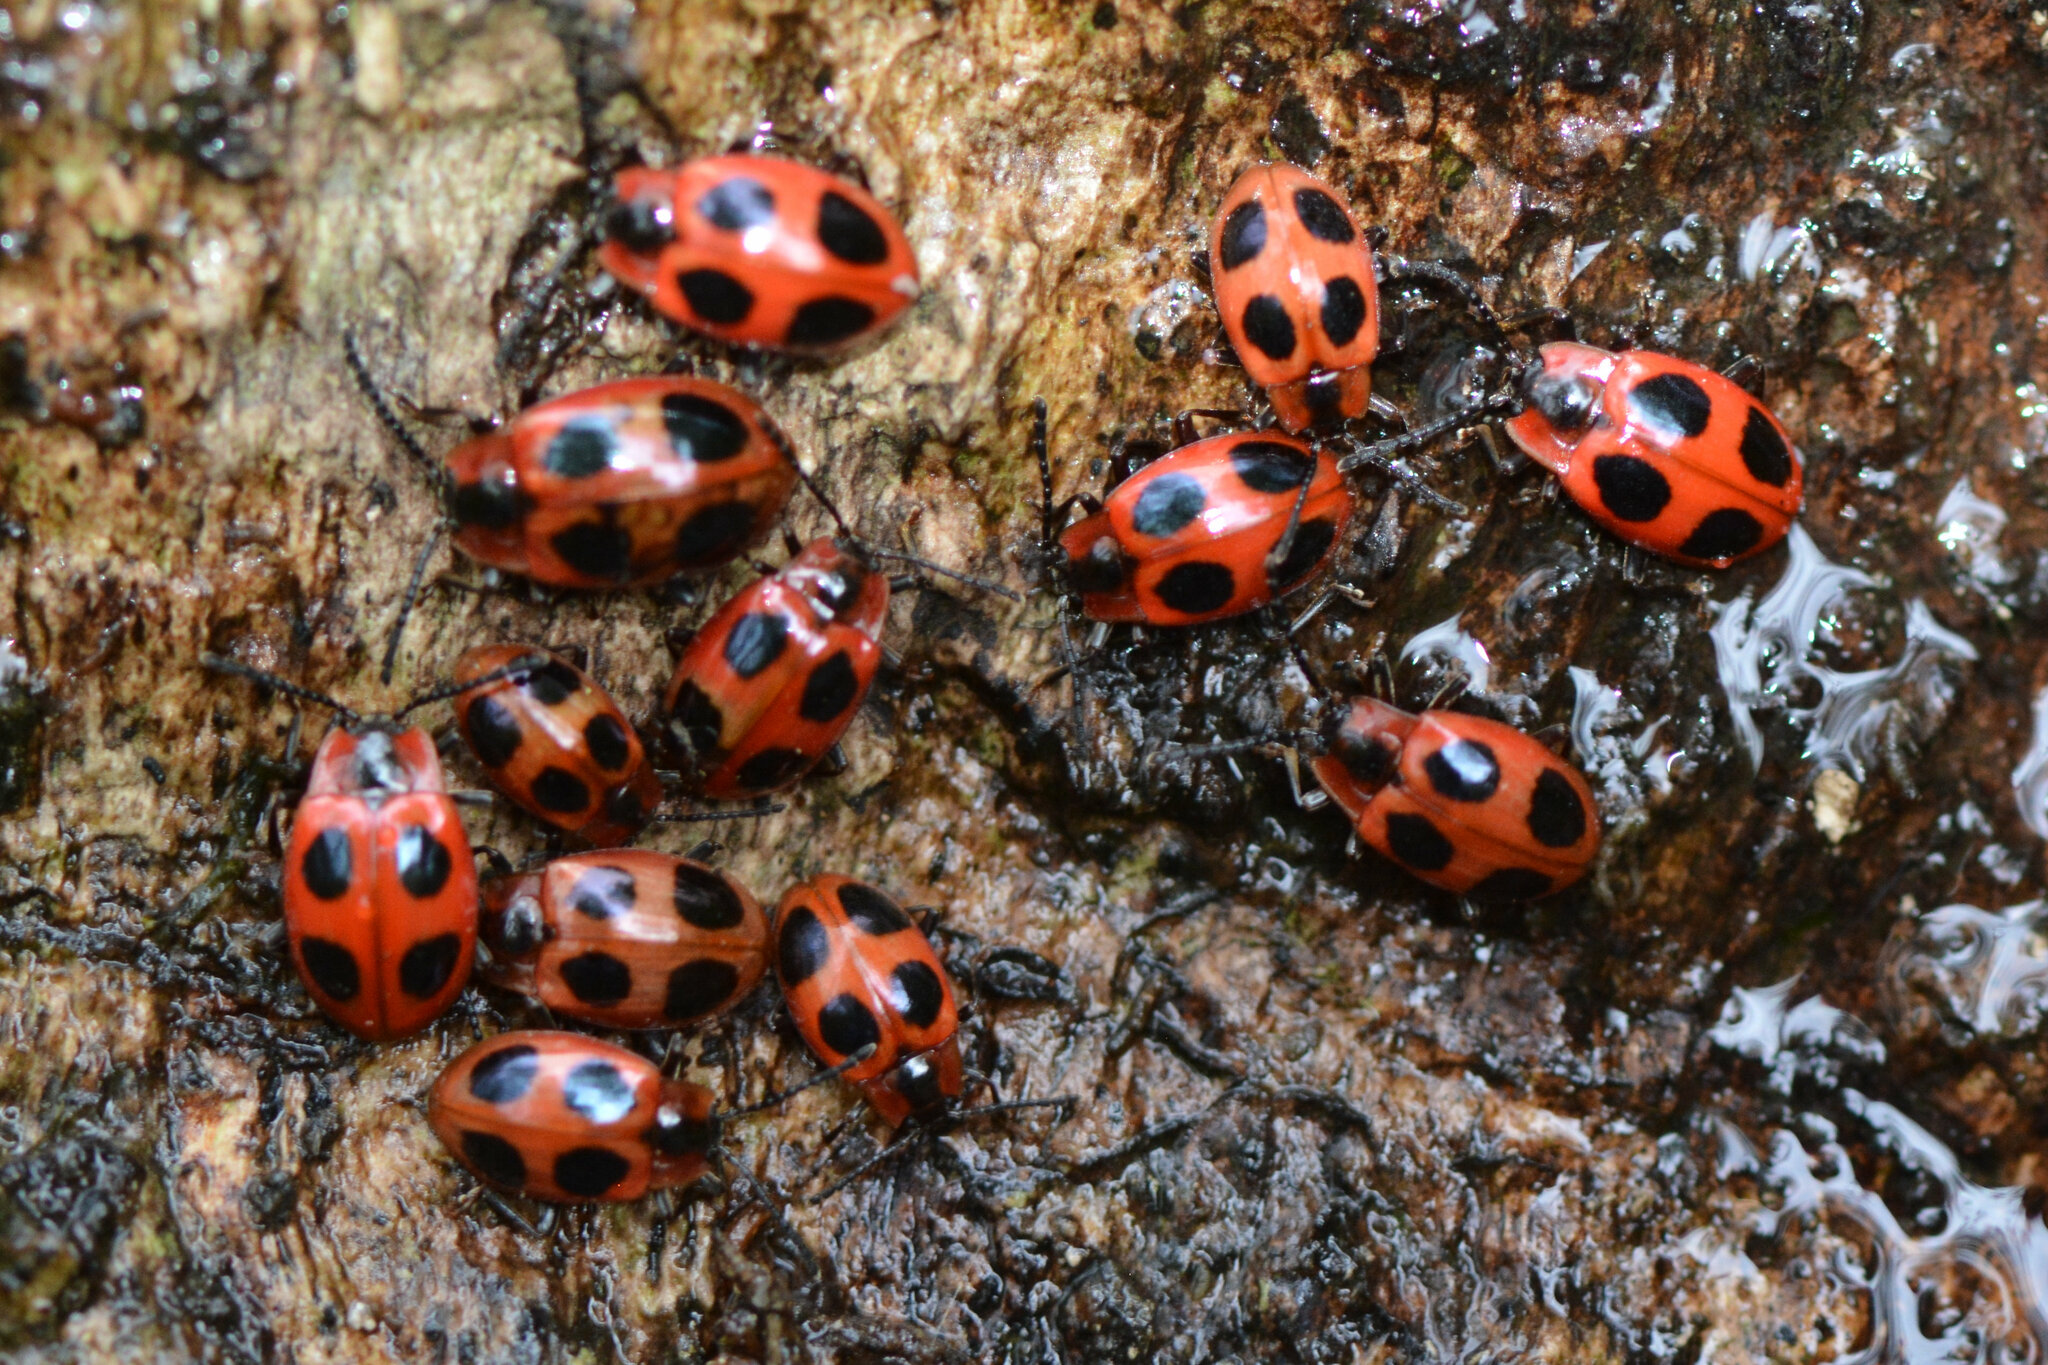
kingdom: Animalia
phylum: Arthropoda
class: Insecta
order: Coleoptera
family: Endomychidae
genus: Endomychus
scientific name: Endomychus coccineus
